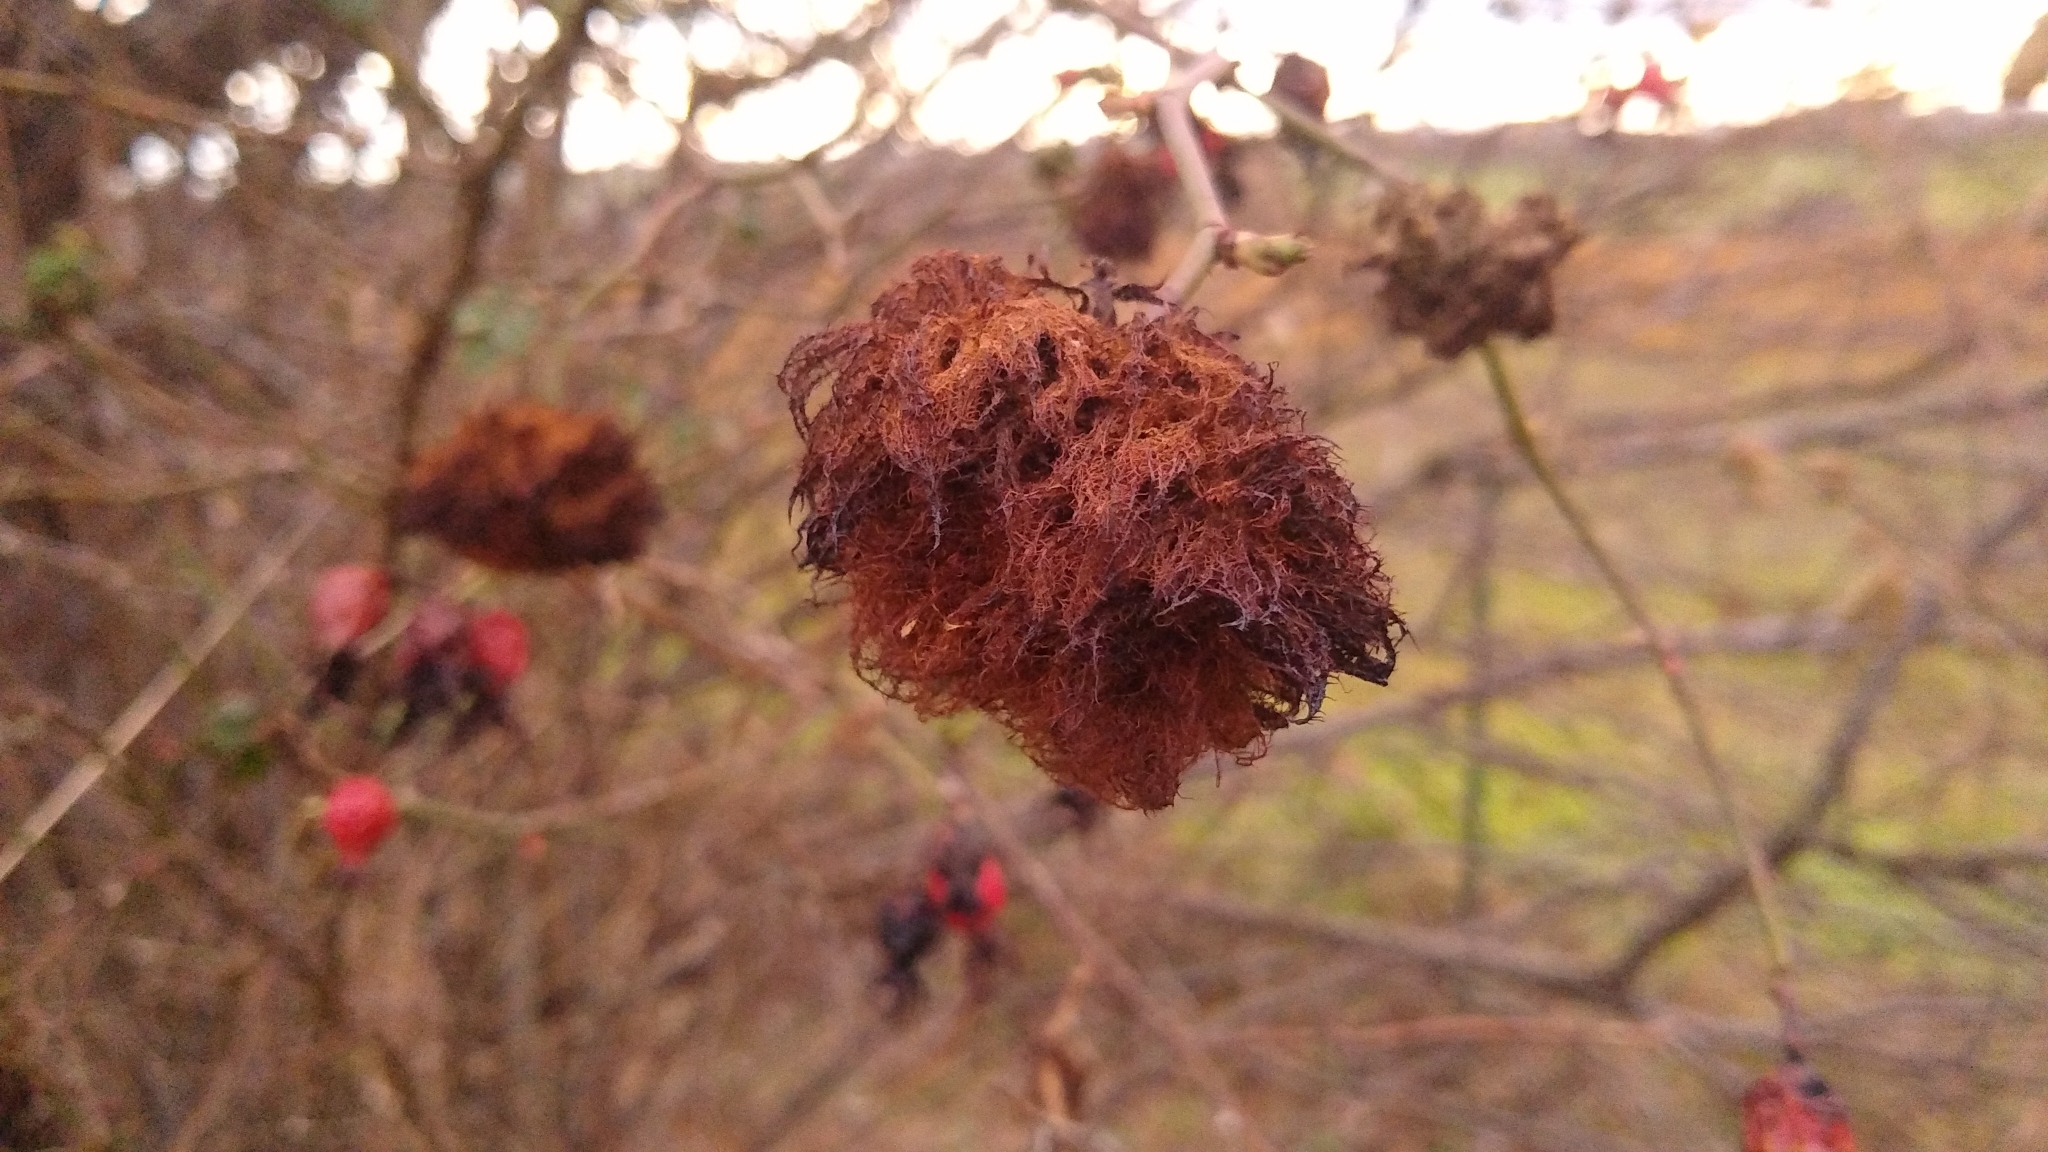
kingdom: Animalia
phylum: Arthropoda
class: Insecta
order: Hymenoptera
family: Cynipidae
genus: Diplolepis
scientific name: Diplolepis rosae
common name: Bedeguar gall
